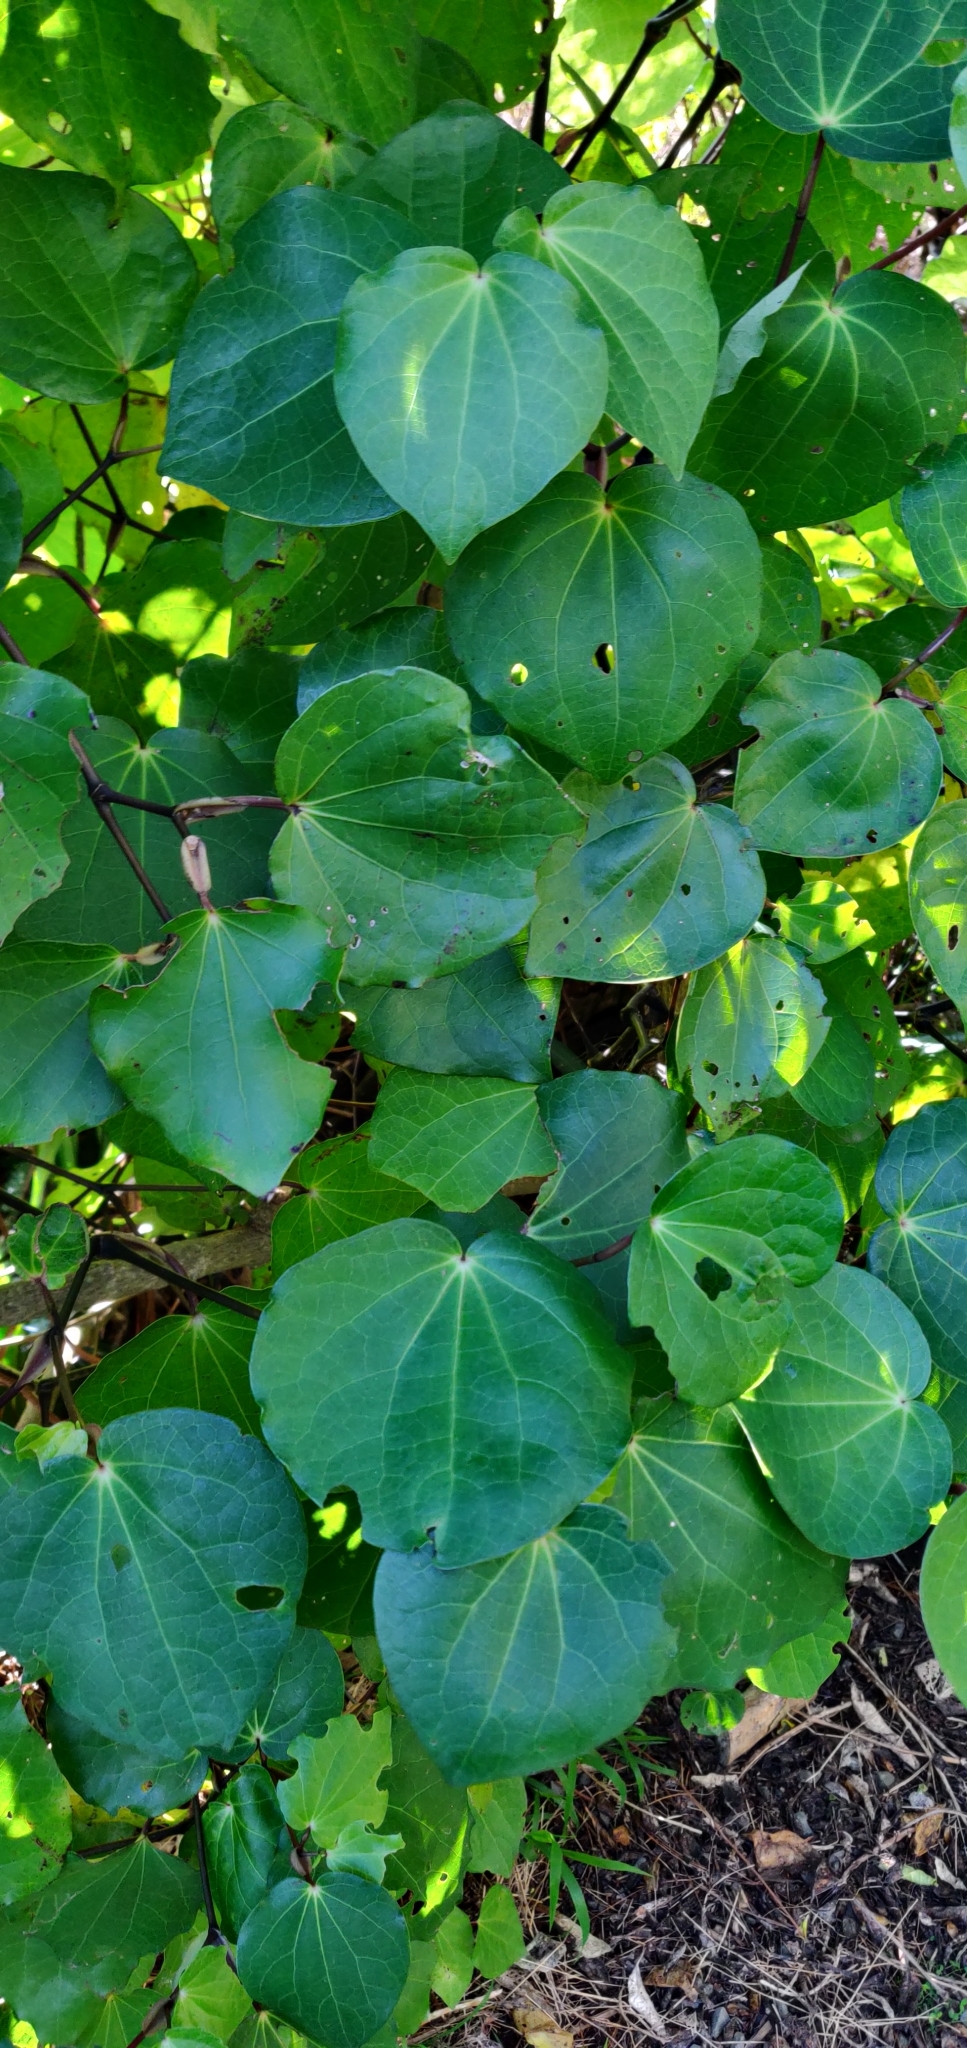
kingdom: Plantae
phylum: Tracheophyta
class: Magnoliopsida
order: Piperales
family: Piperaceae
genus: Macropiper
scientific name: Macropiper excelsum
